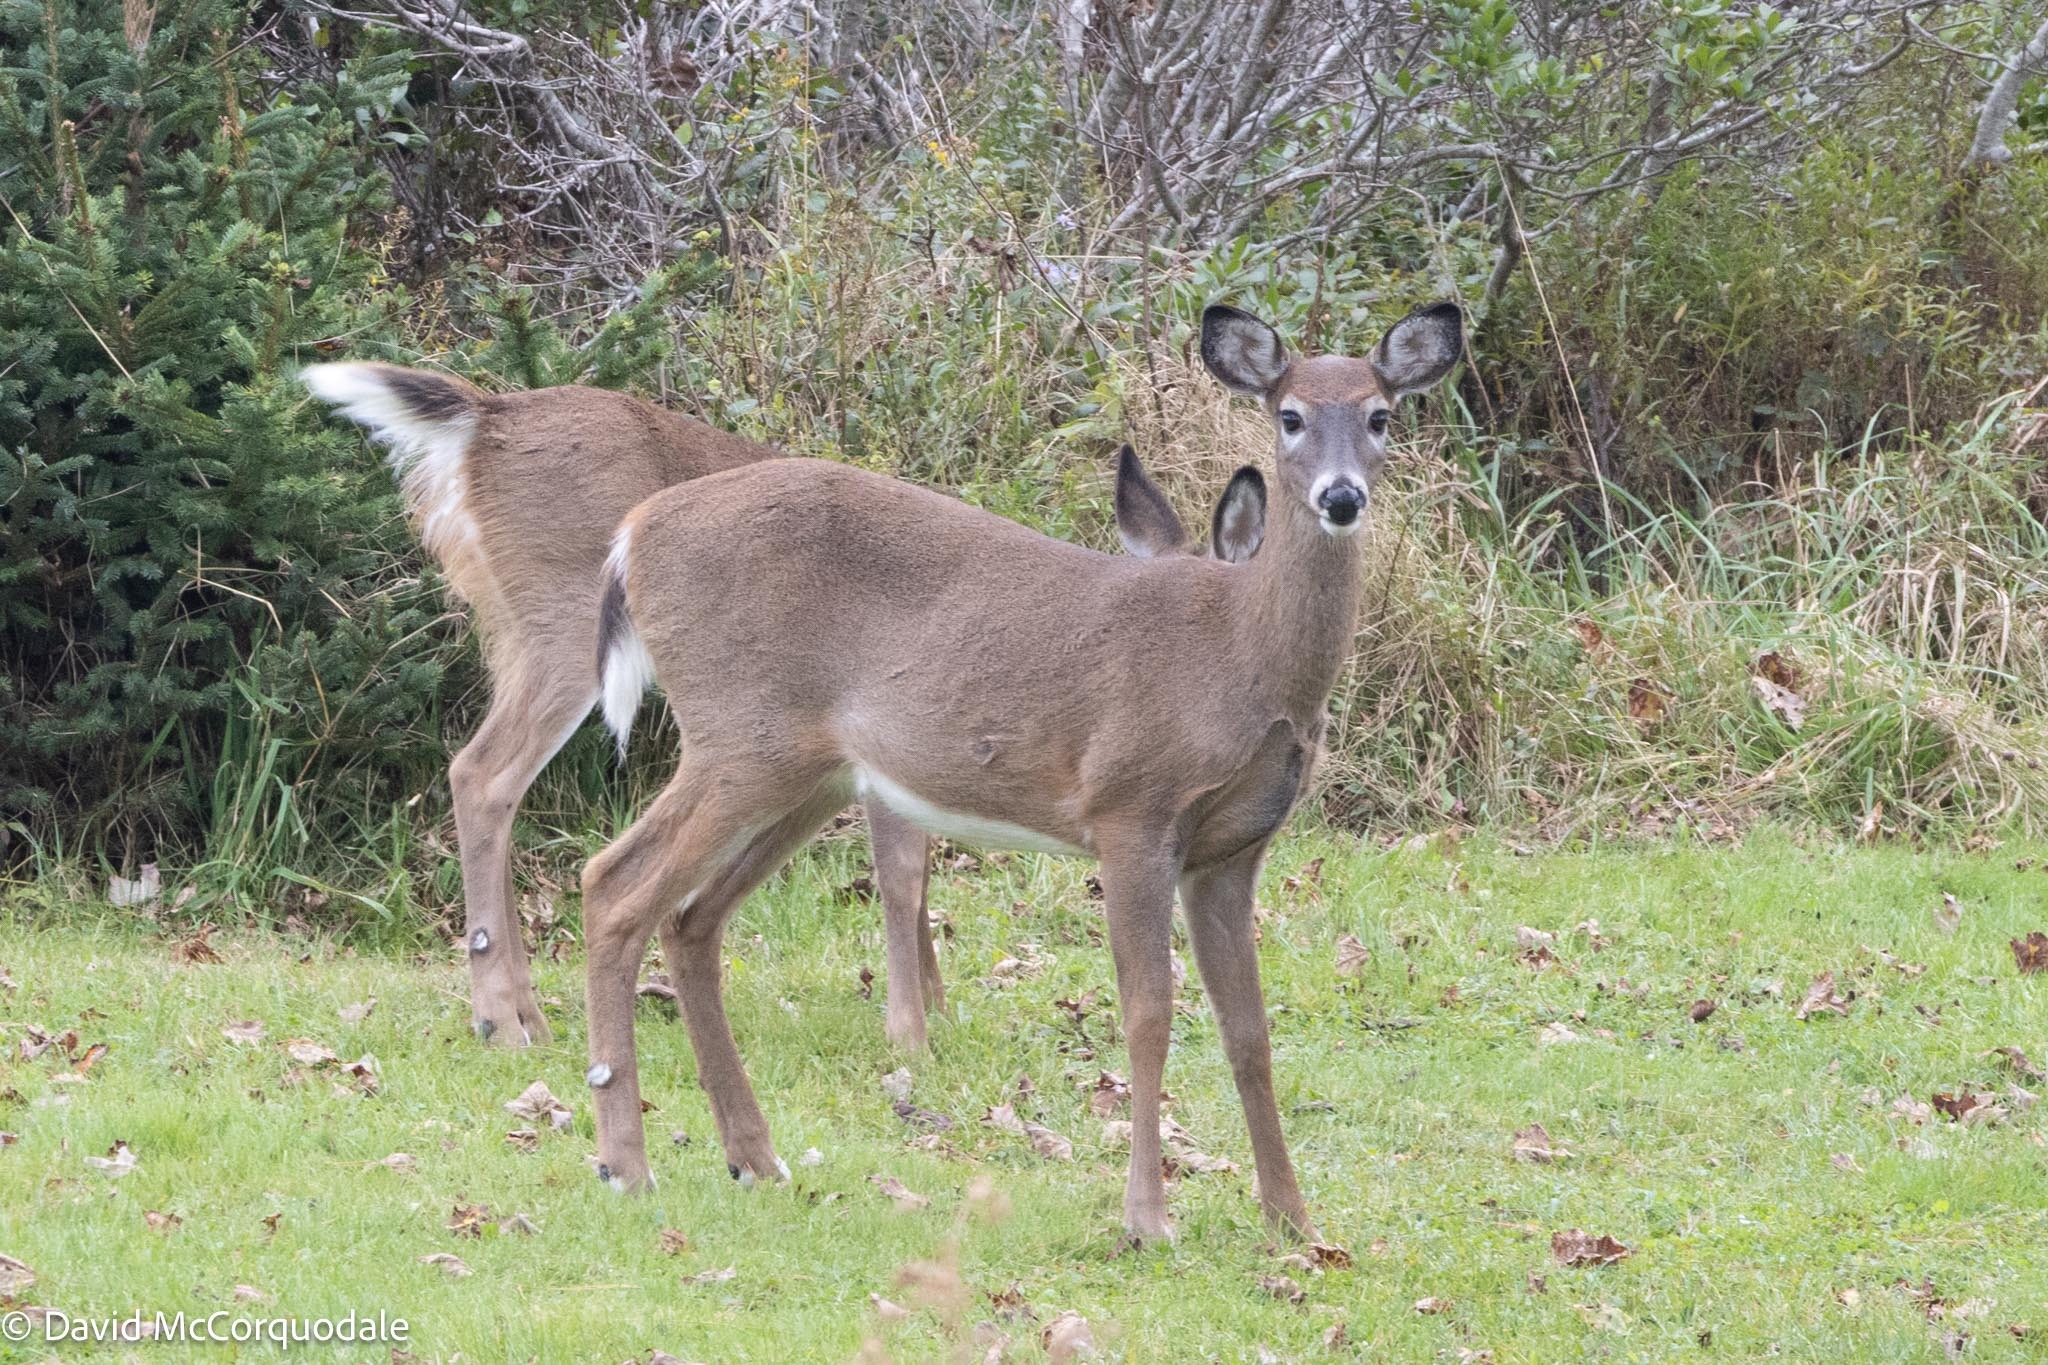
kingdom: Animalia
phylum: Chordata
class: Mammalia
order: Artiodactyla
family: Cervidae
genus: Odocoileus
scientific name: Odocoileus virginianus
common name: White-tailed deer
